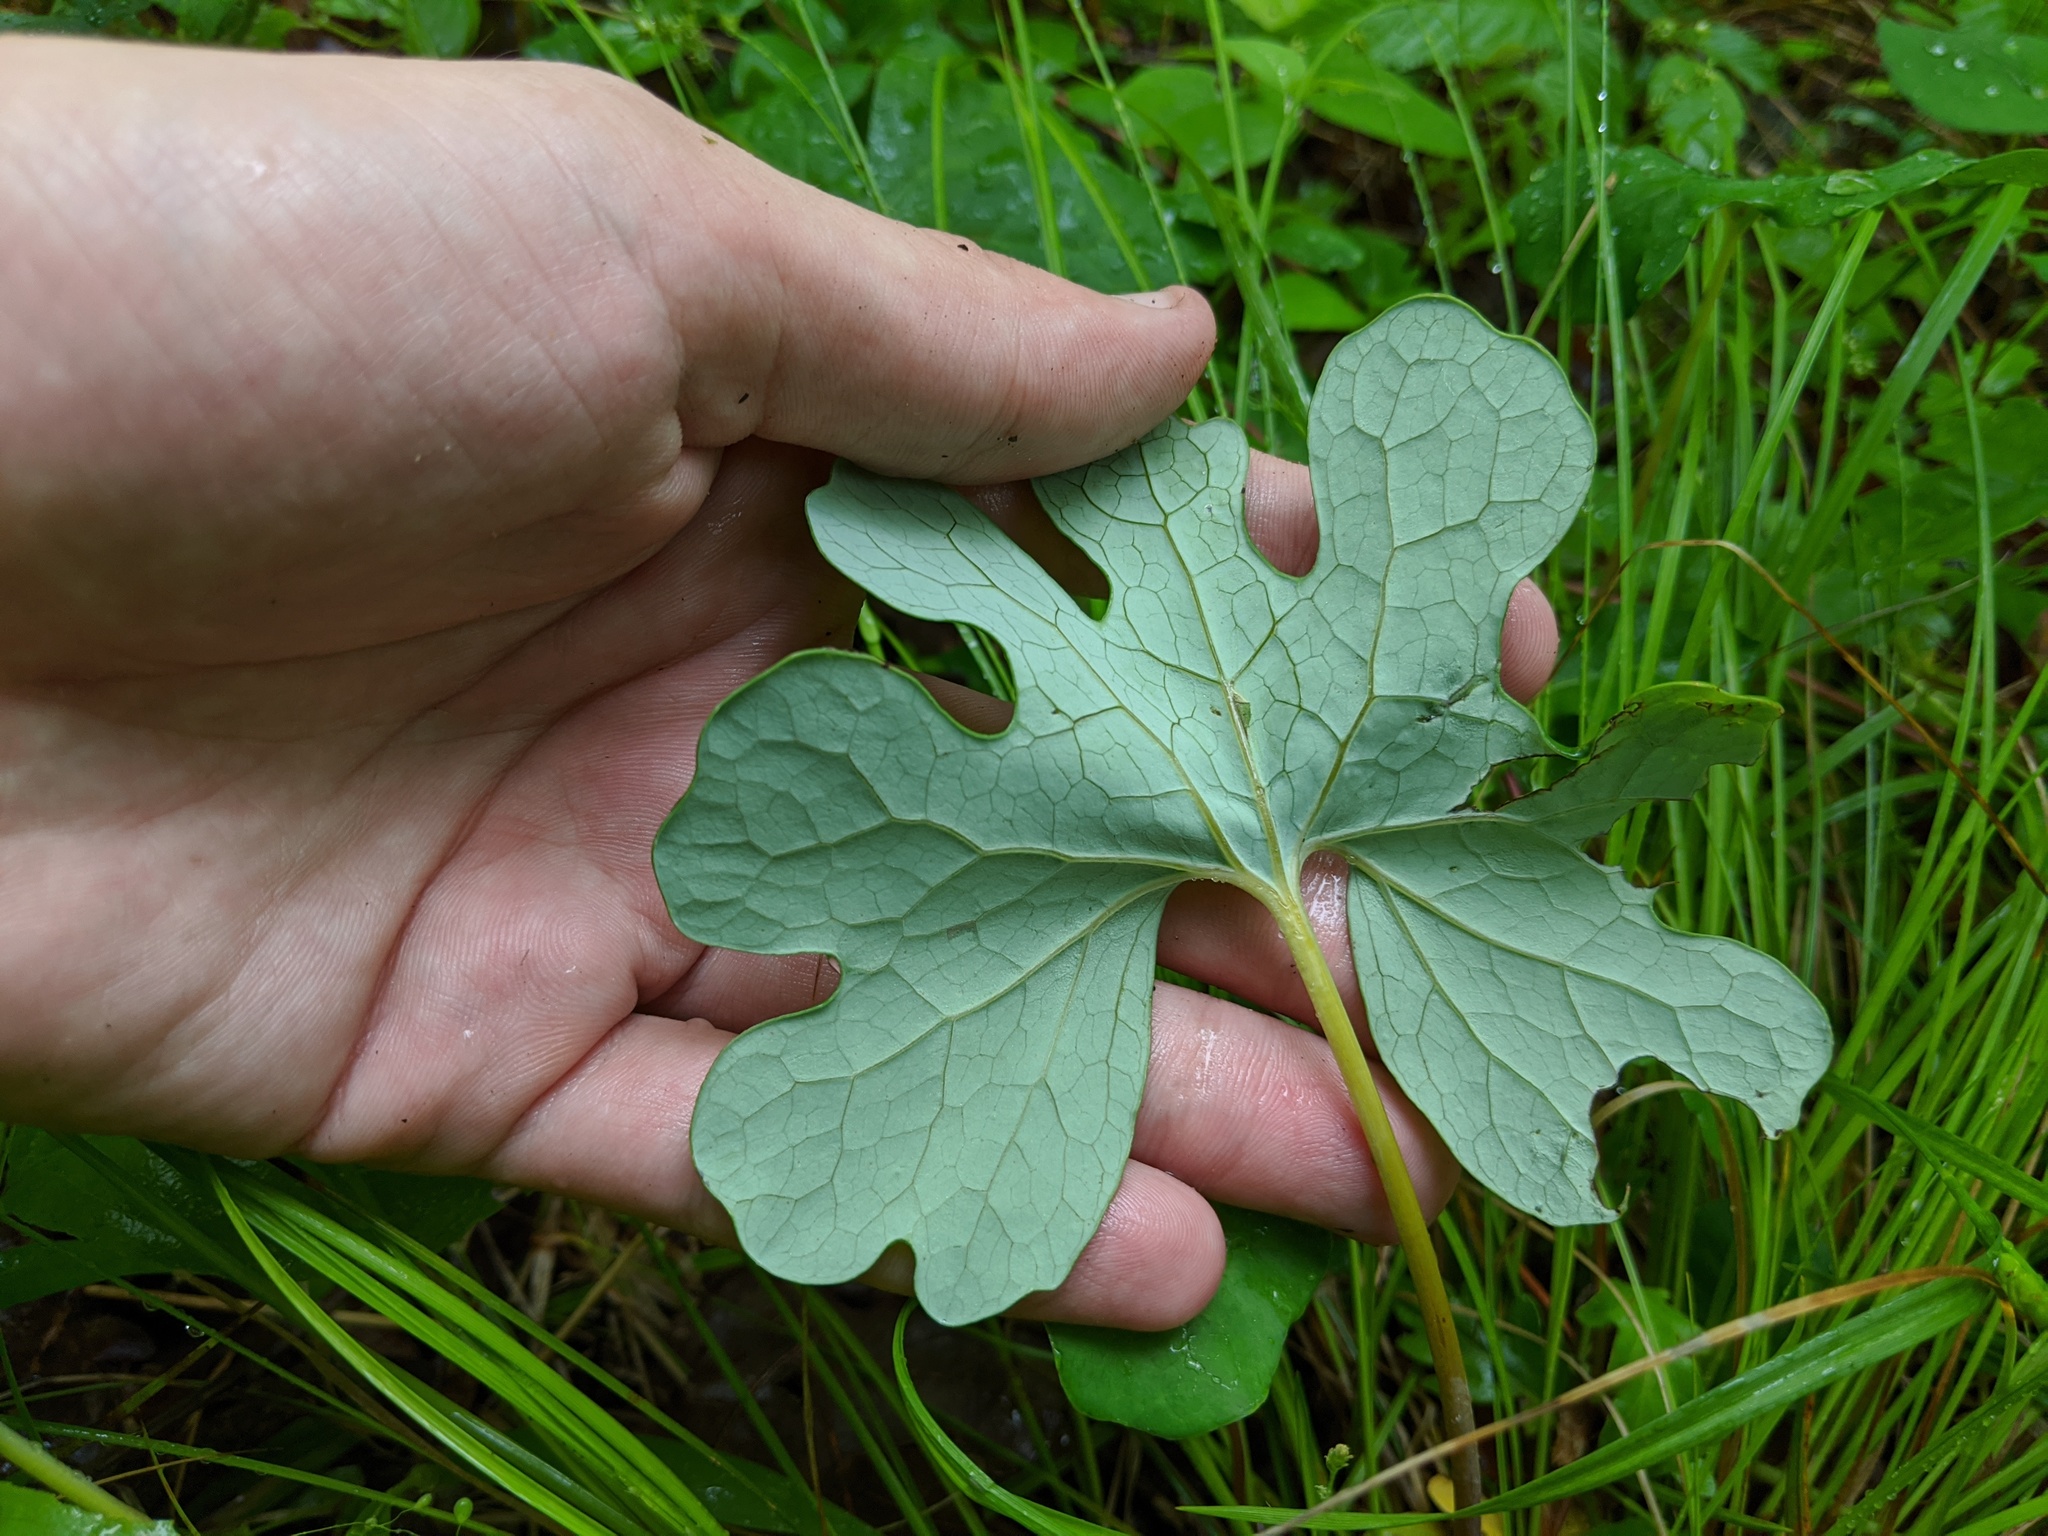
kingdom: Plantae
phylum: Tracheophyta
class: Magnoliopsida
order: Ranunculales
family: Papaveraceae
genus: Sanguinaria
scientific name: Sanguinaria canadensis
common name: Bloodroot
